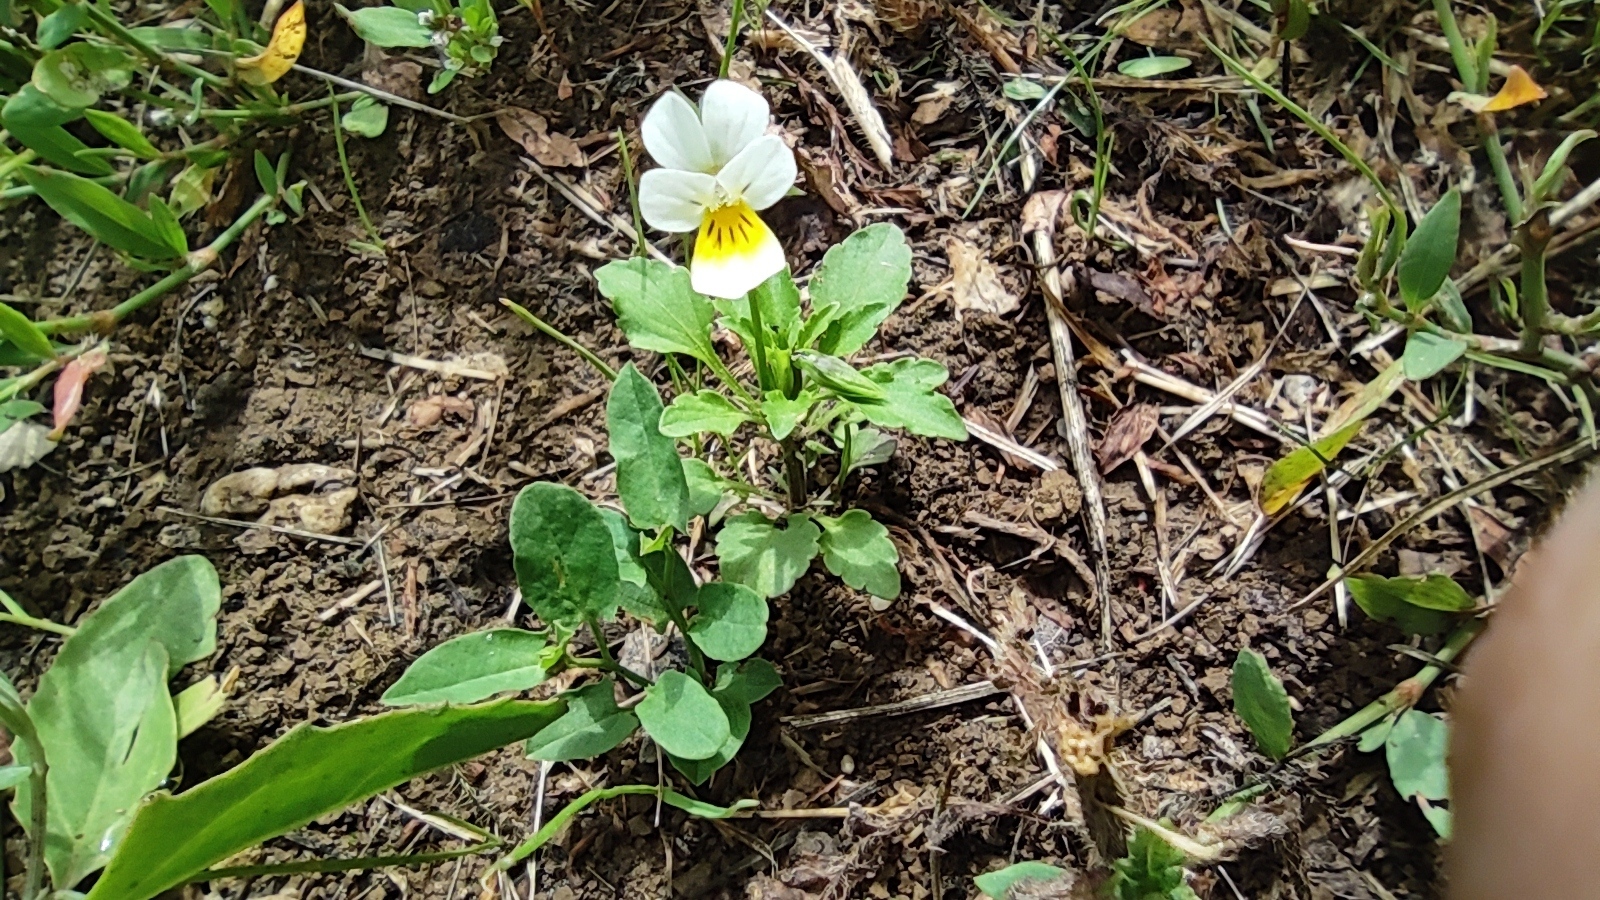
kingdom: Plantae
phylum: Tracheophyta
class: Magnoliopsida
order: Malpighiales
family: Violaceae
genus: Viola
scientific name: Viola arvensis
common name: Field pansy
